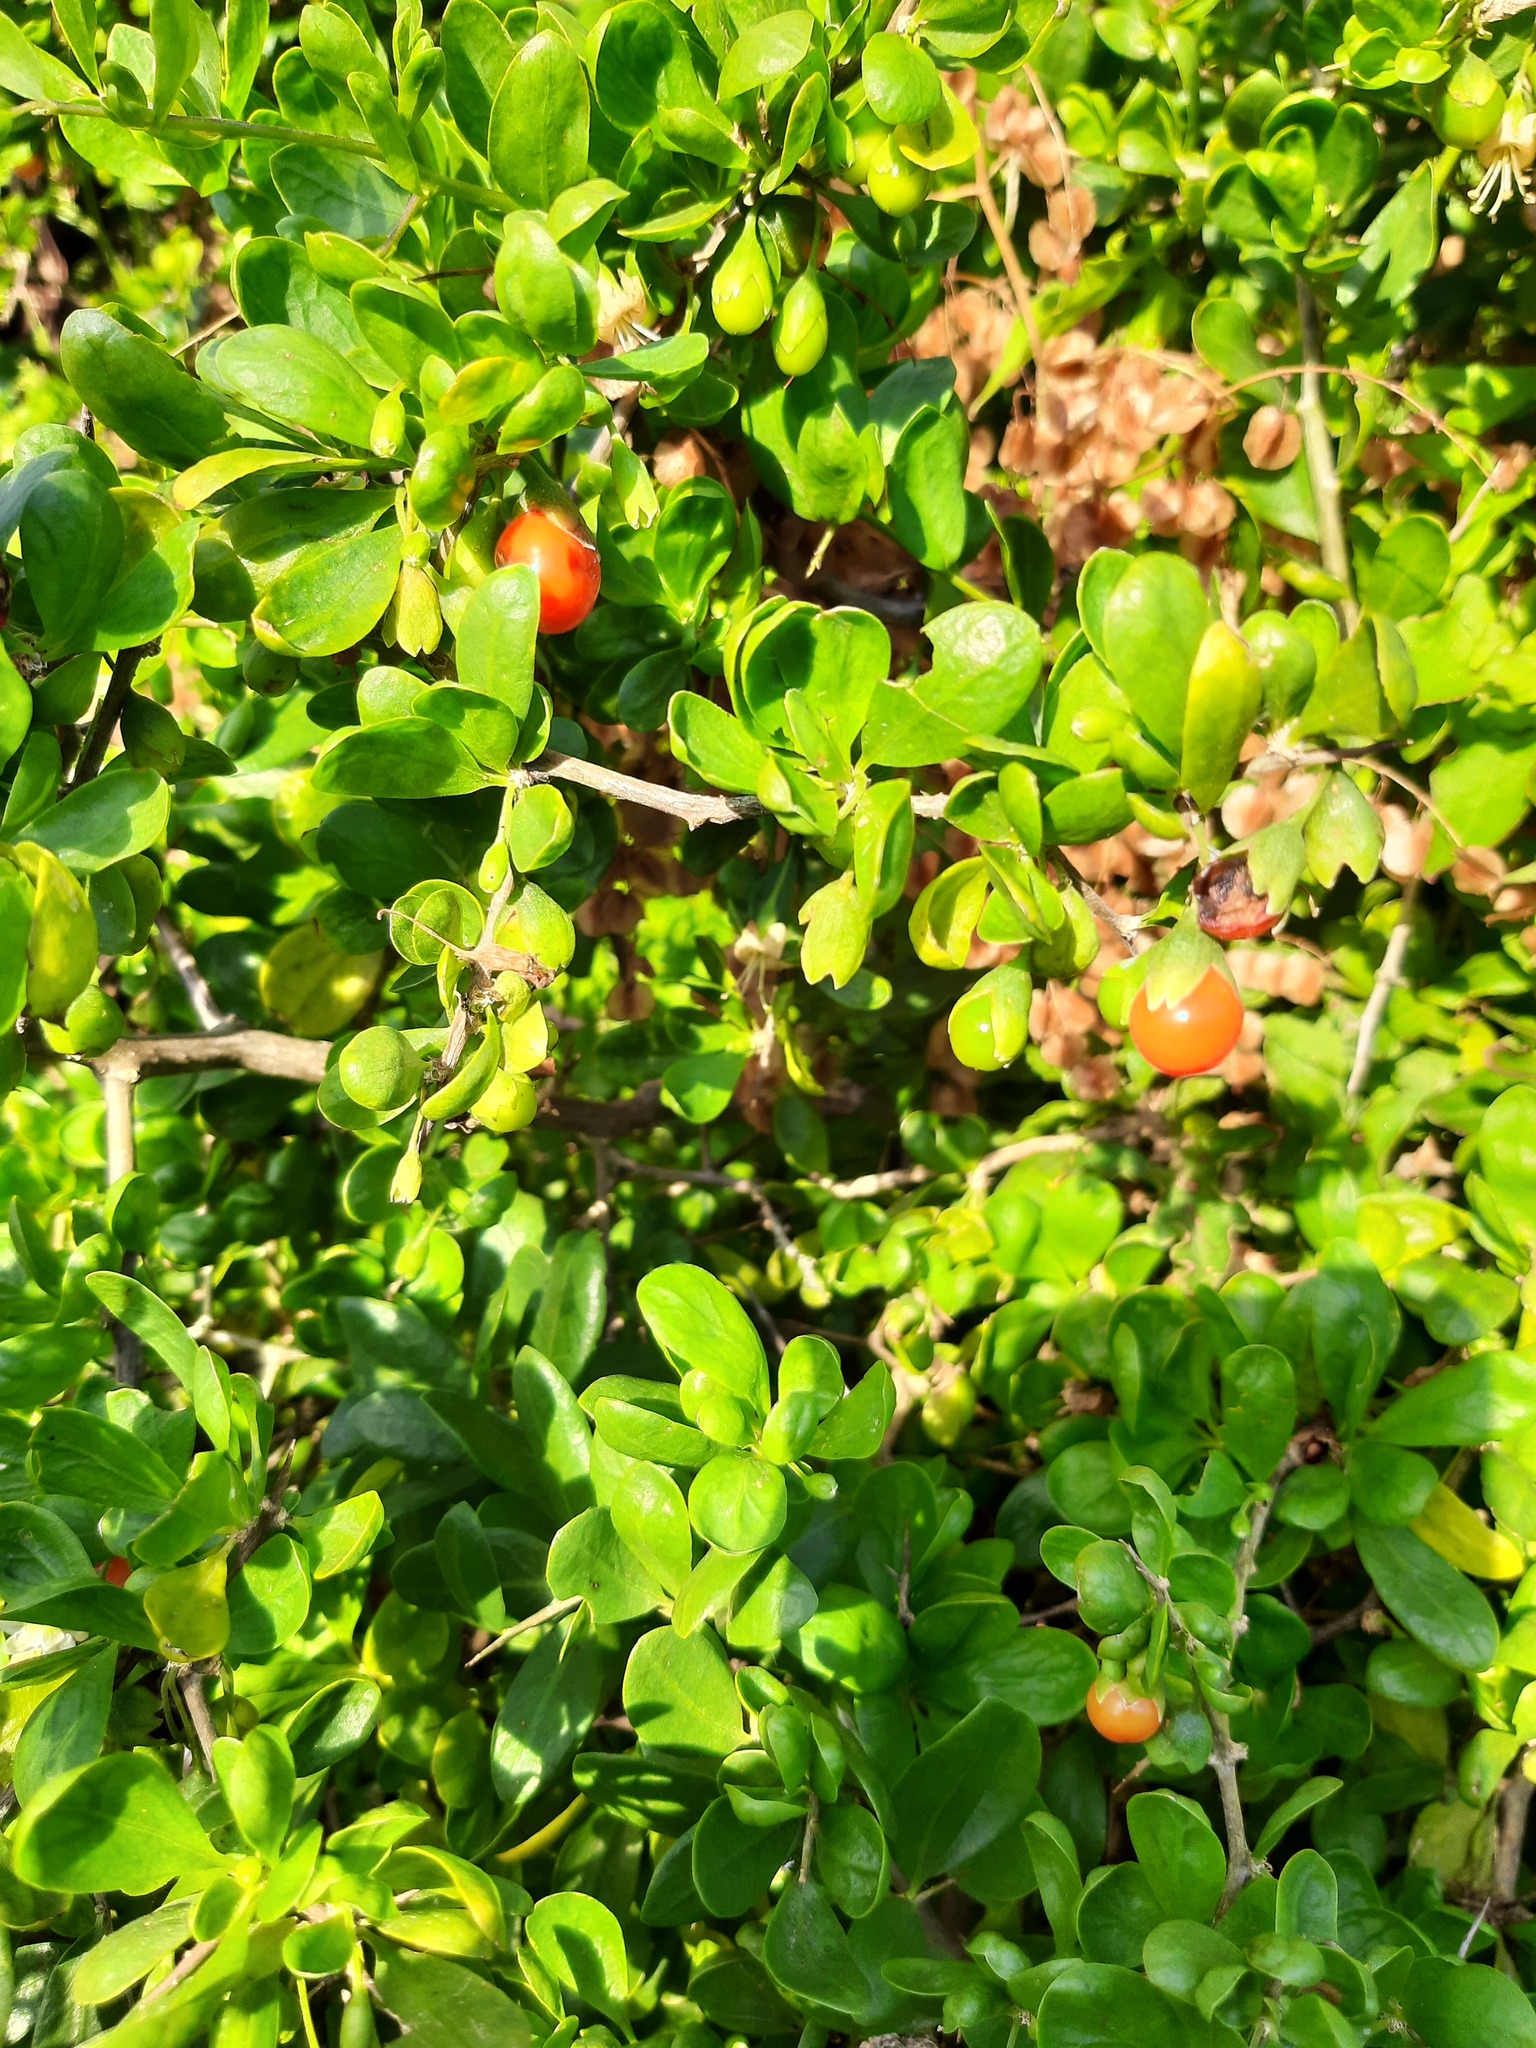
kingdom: Plantae
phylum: Tracheophyta
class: Magnoliopsida
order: Solanales
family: Solanaceae
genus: Lycium
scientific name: Lycium ferocissimum
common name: African boxthorn
